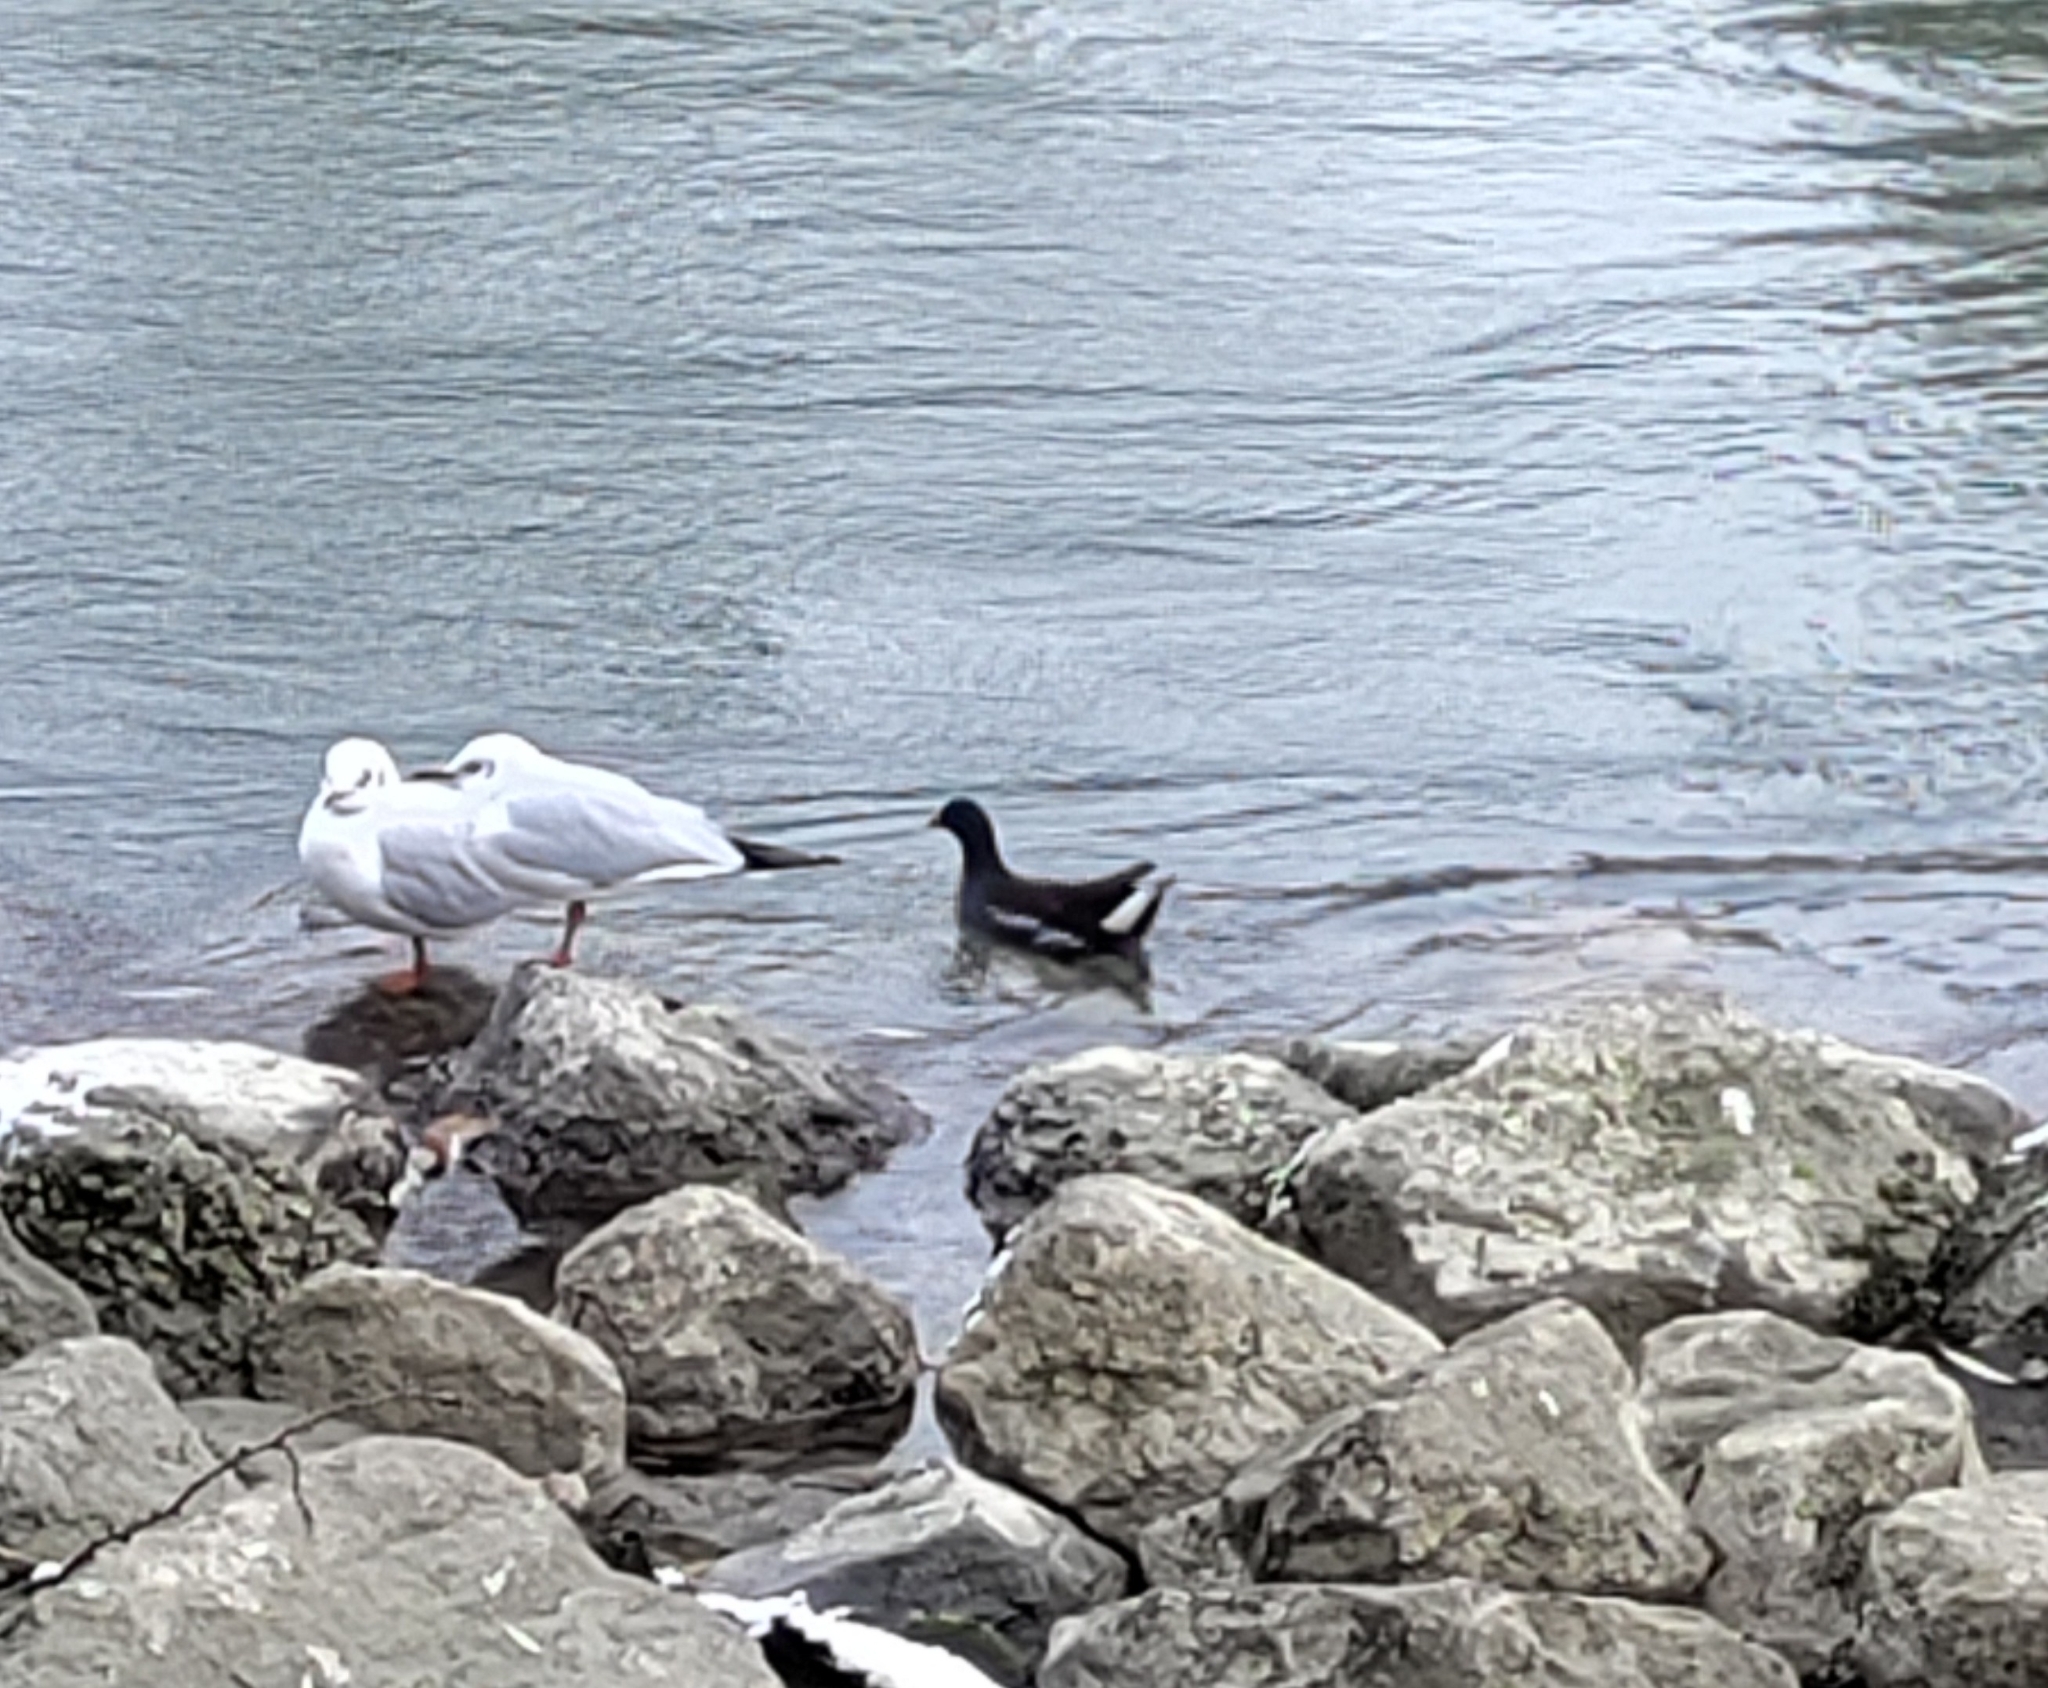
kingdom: Animalia
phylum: Chordata
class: Aves
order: Gruiformes
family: Rallidae
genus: Gallinula
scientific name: Gallinula chloropus
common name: Common moorhen
